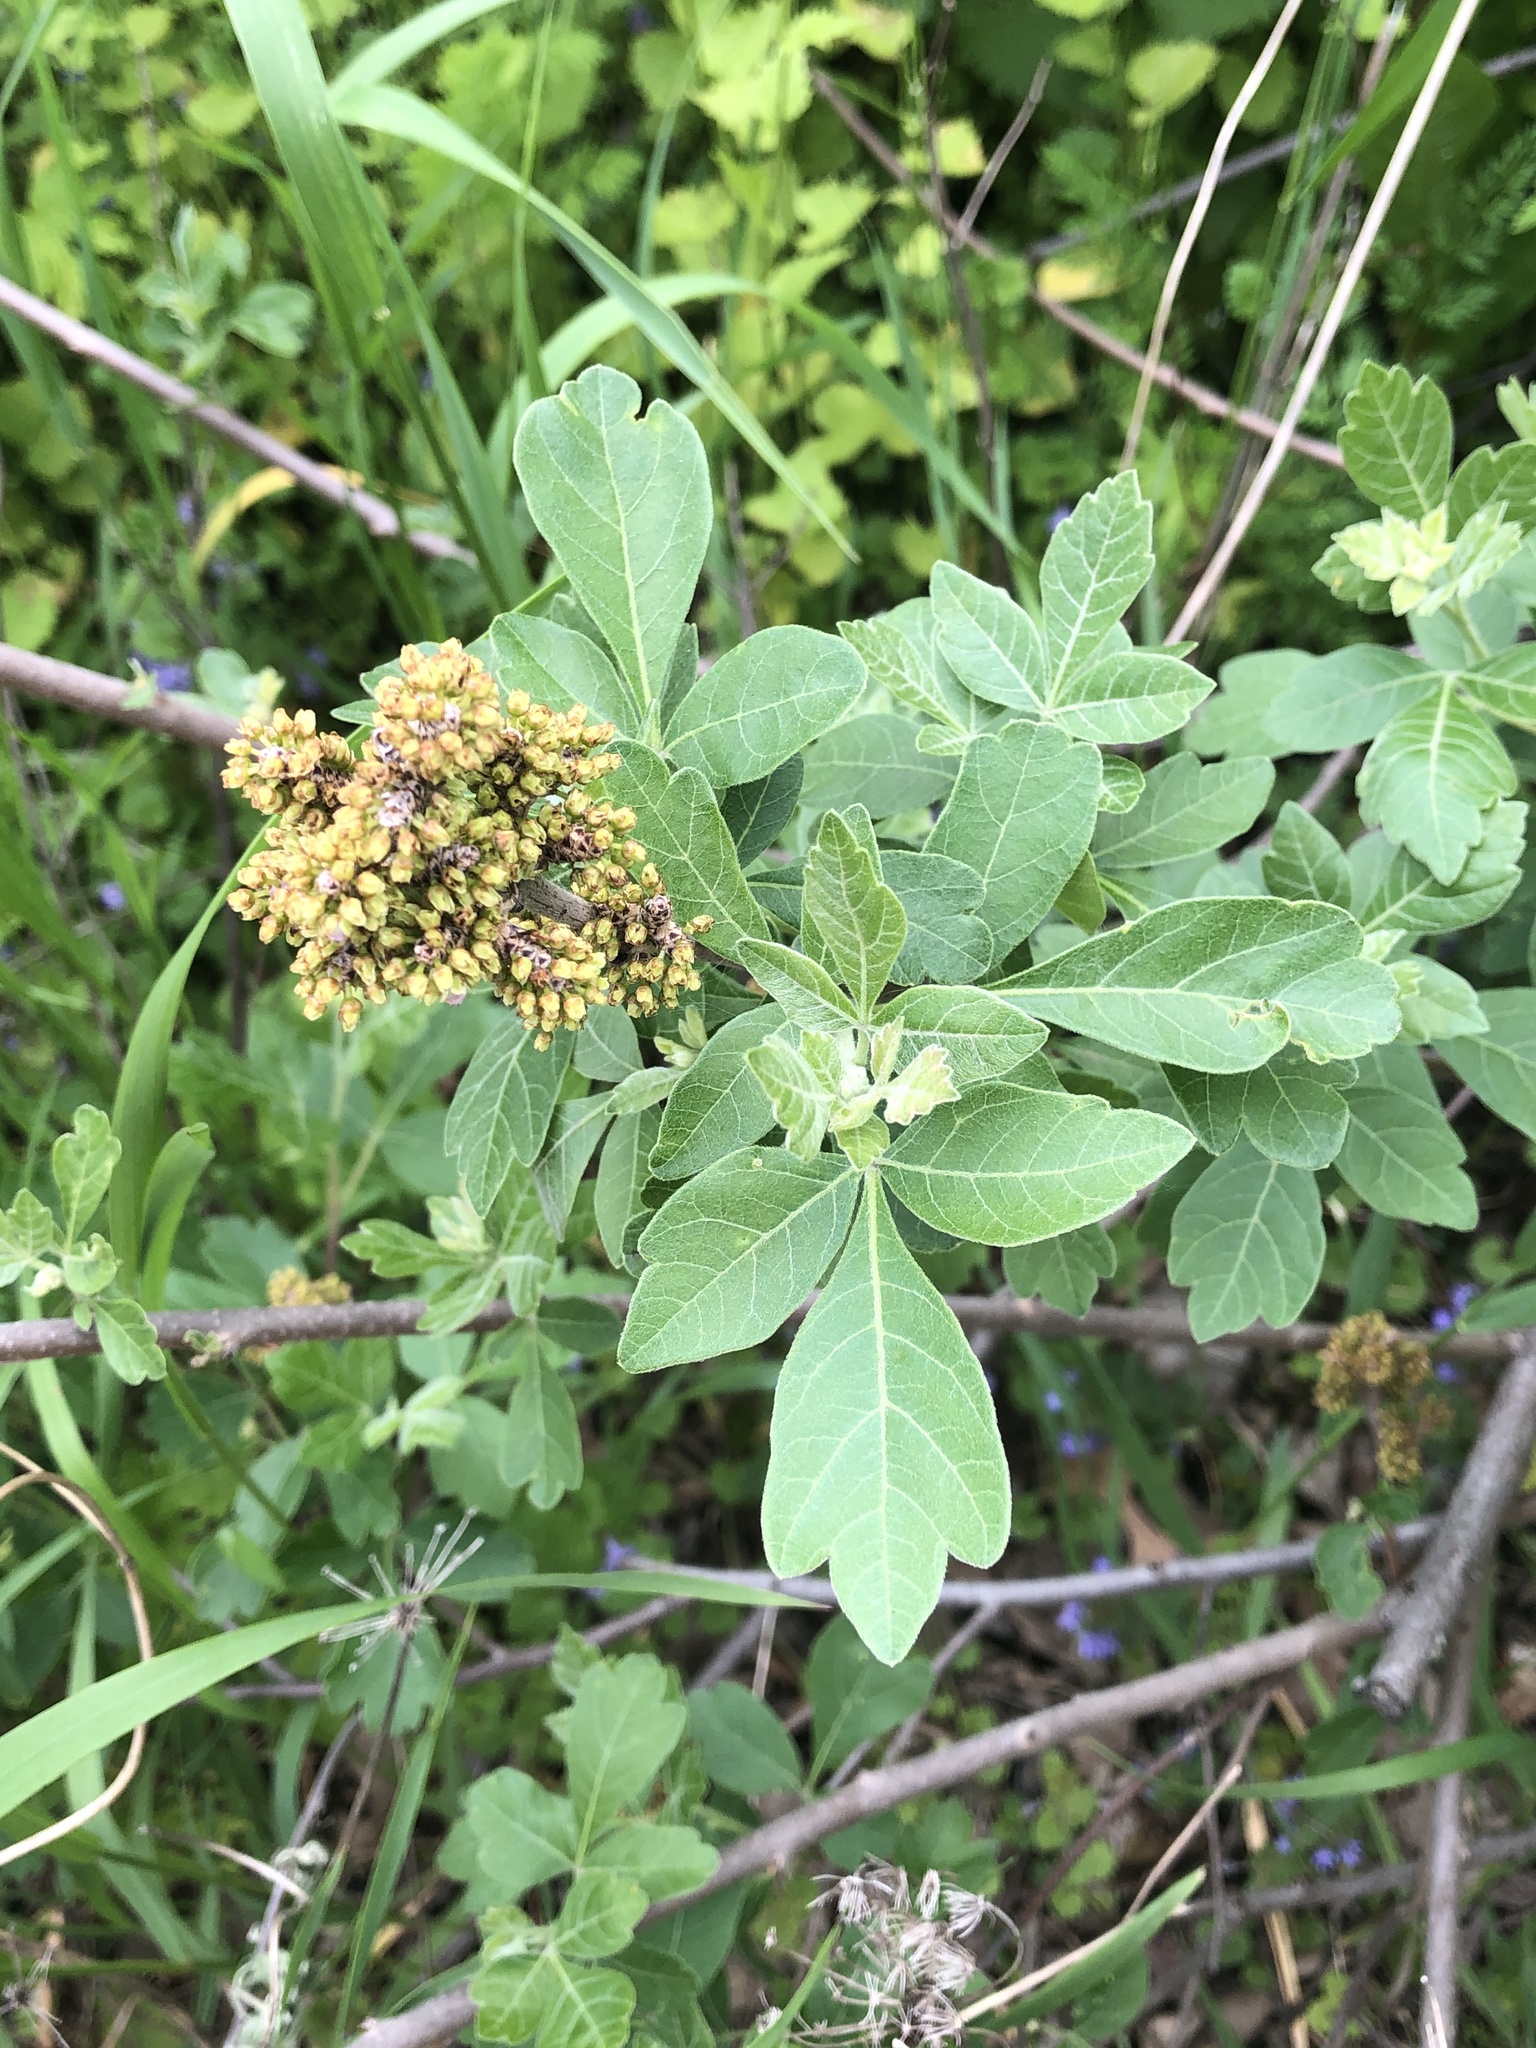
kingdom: Plantae
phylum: Tracheophyta
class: Magnoliopsida
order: Sapindales
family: Anacardiaceae
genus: Rhus
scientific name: Rhus aromatica
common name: Aromatic sumac
